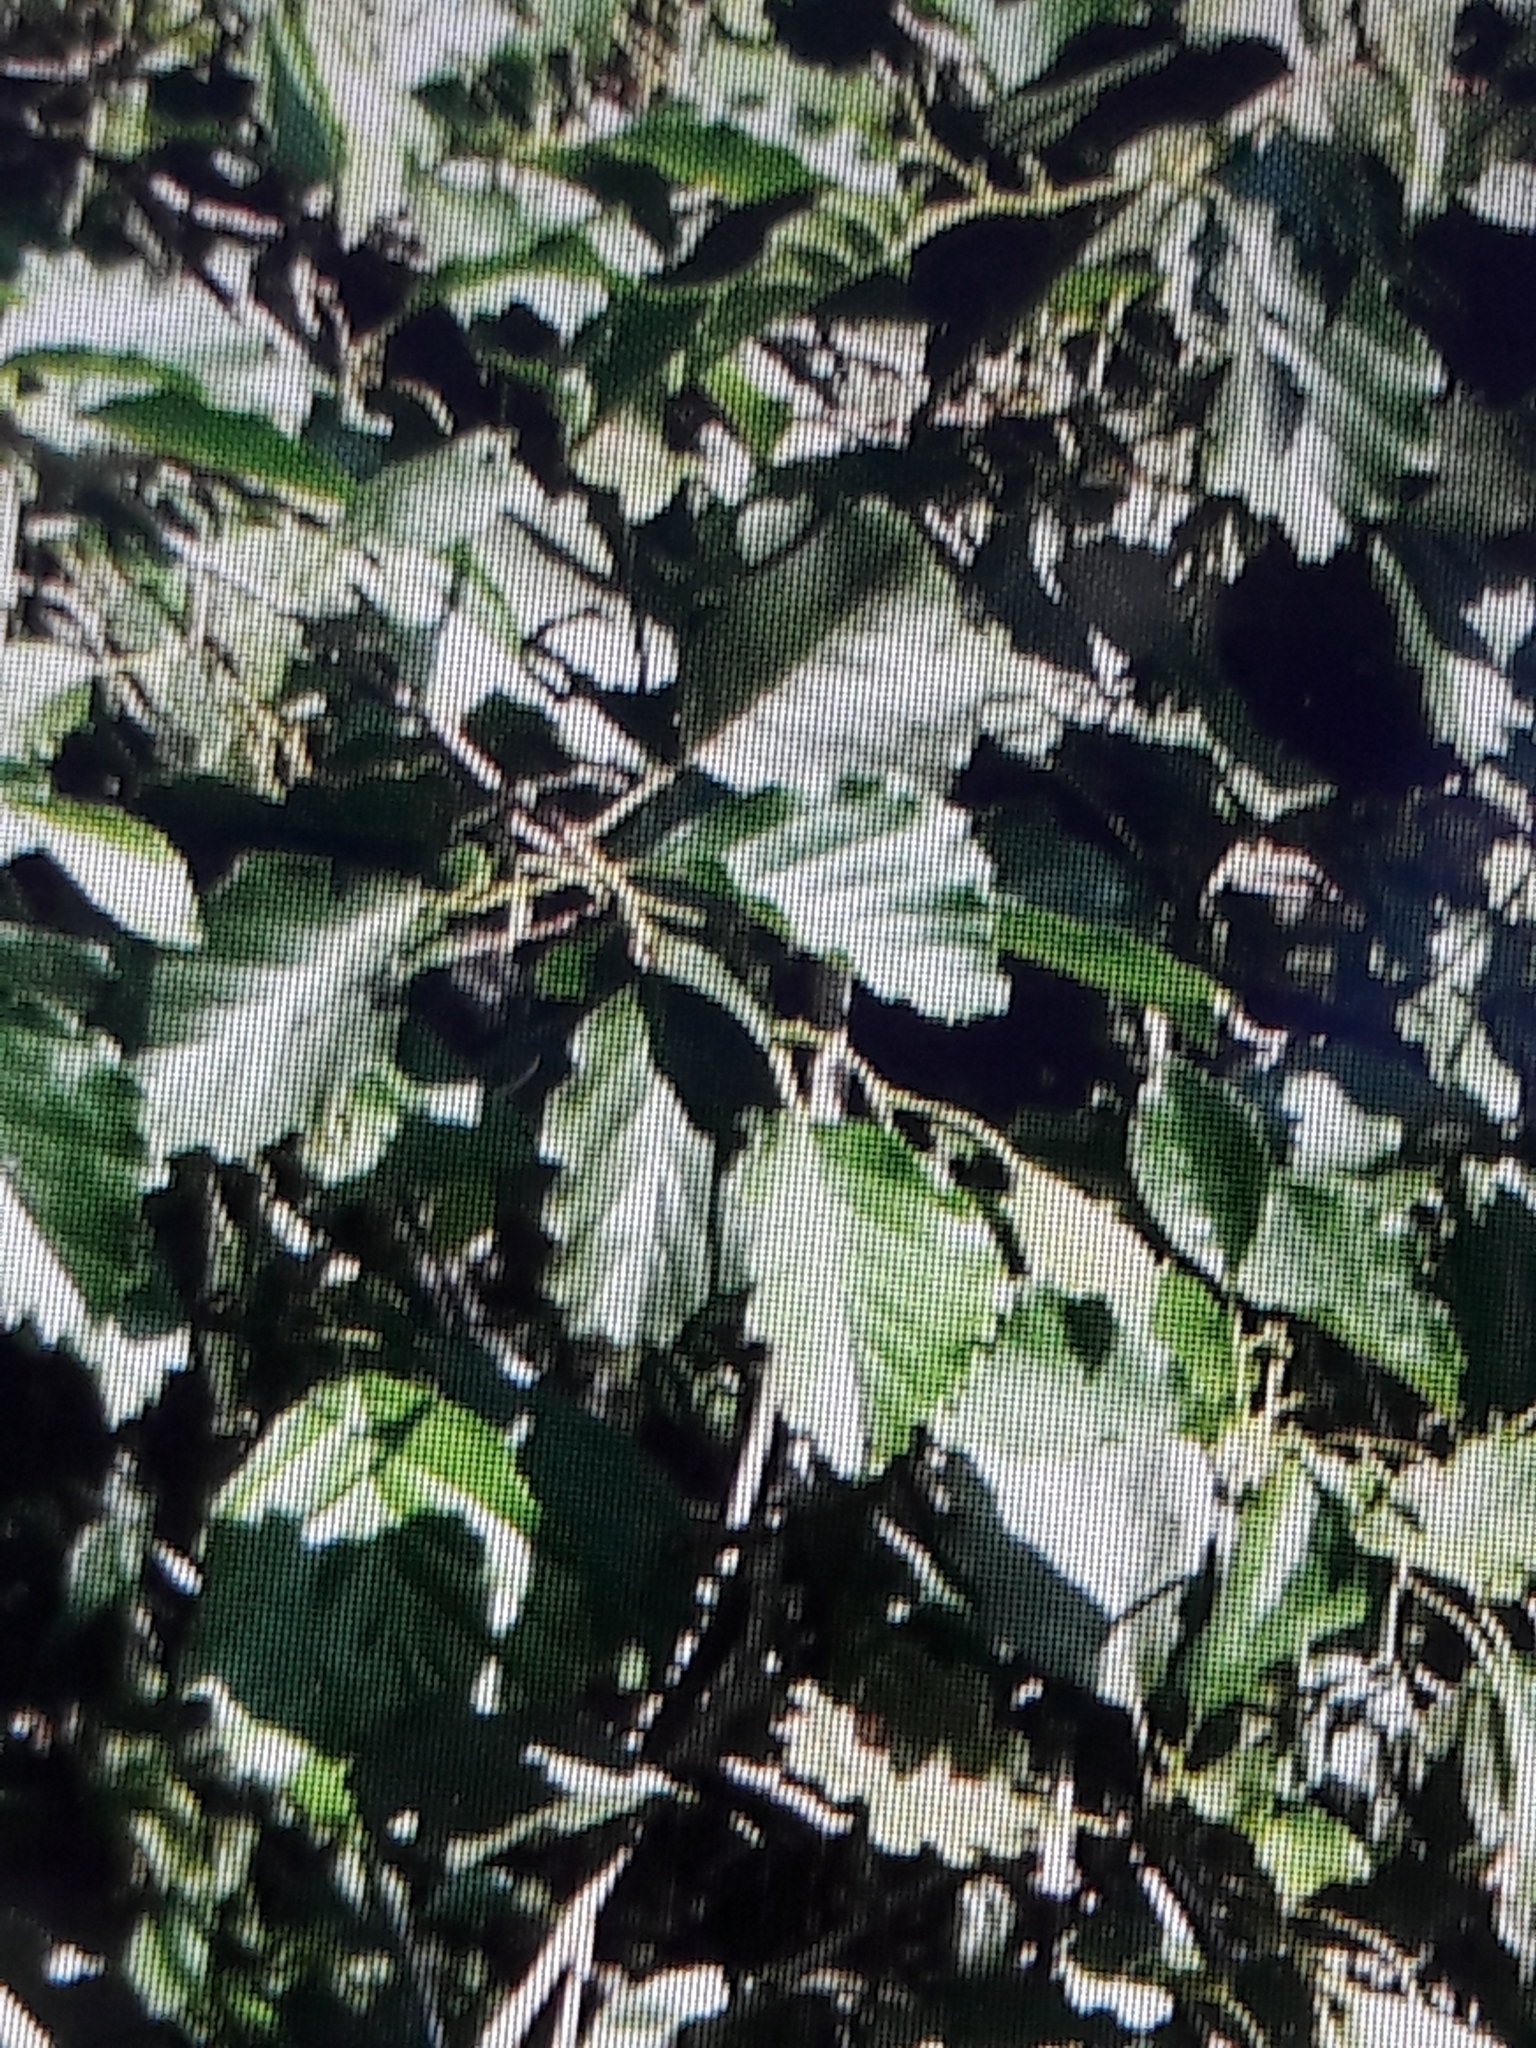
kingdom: Plantae
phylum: Tracheophyta
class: Magnoliopsida
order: Fagales
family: Betulaceae
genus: Alnus
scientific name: Alnus lusitanica
